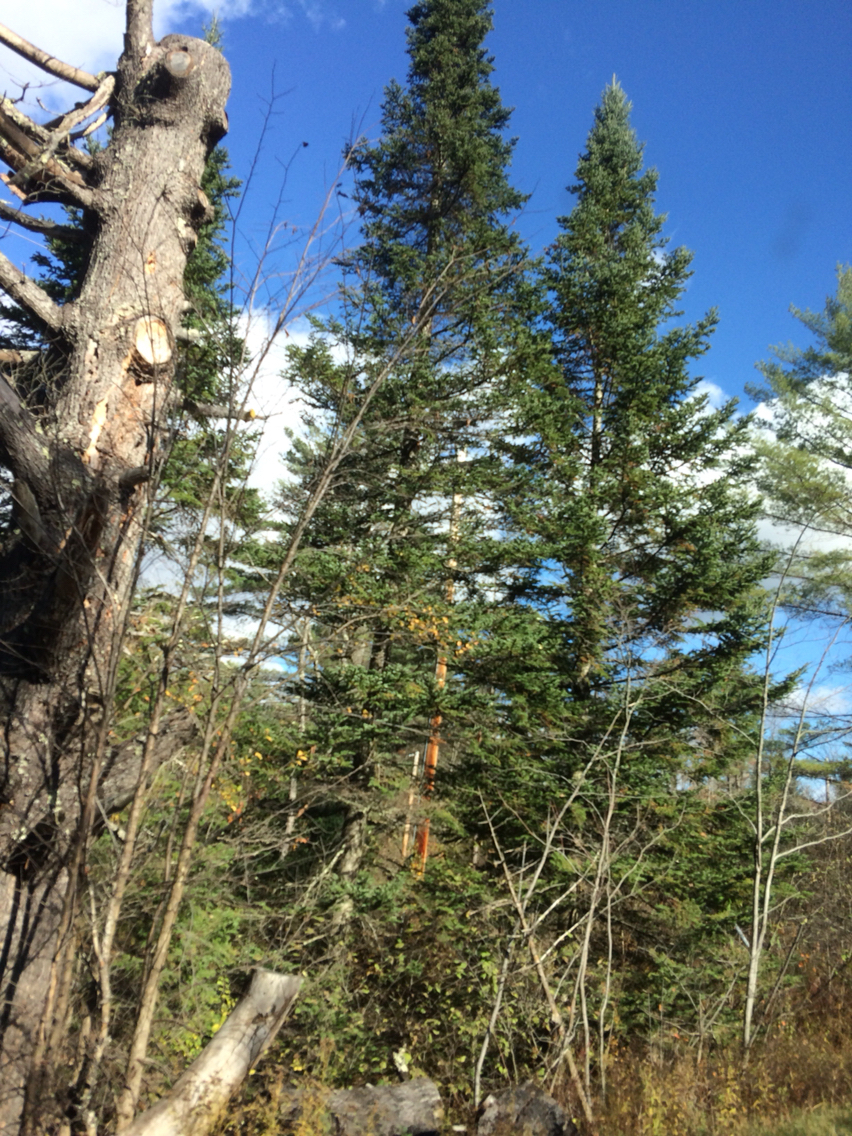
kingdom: Plantae
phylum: Tracheophyta
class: Pinopsida
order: Pinales
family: Pinaceae
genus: Abies
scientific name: Abies balsamea
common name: Balsam fir
